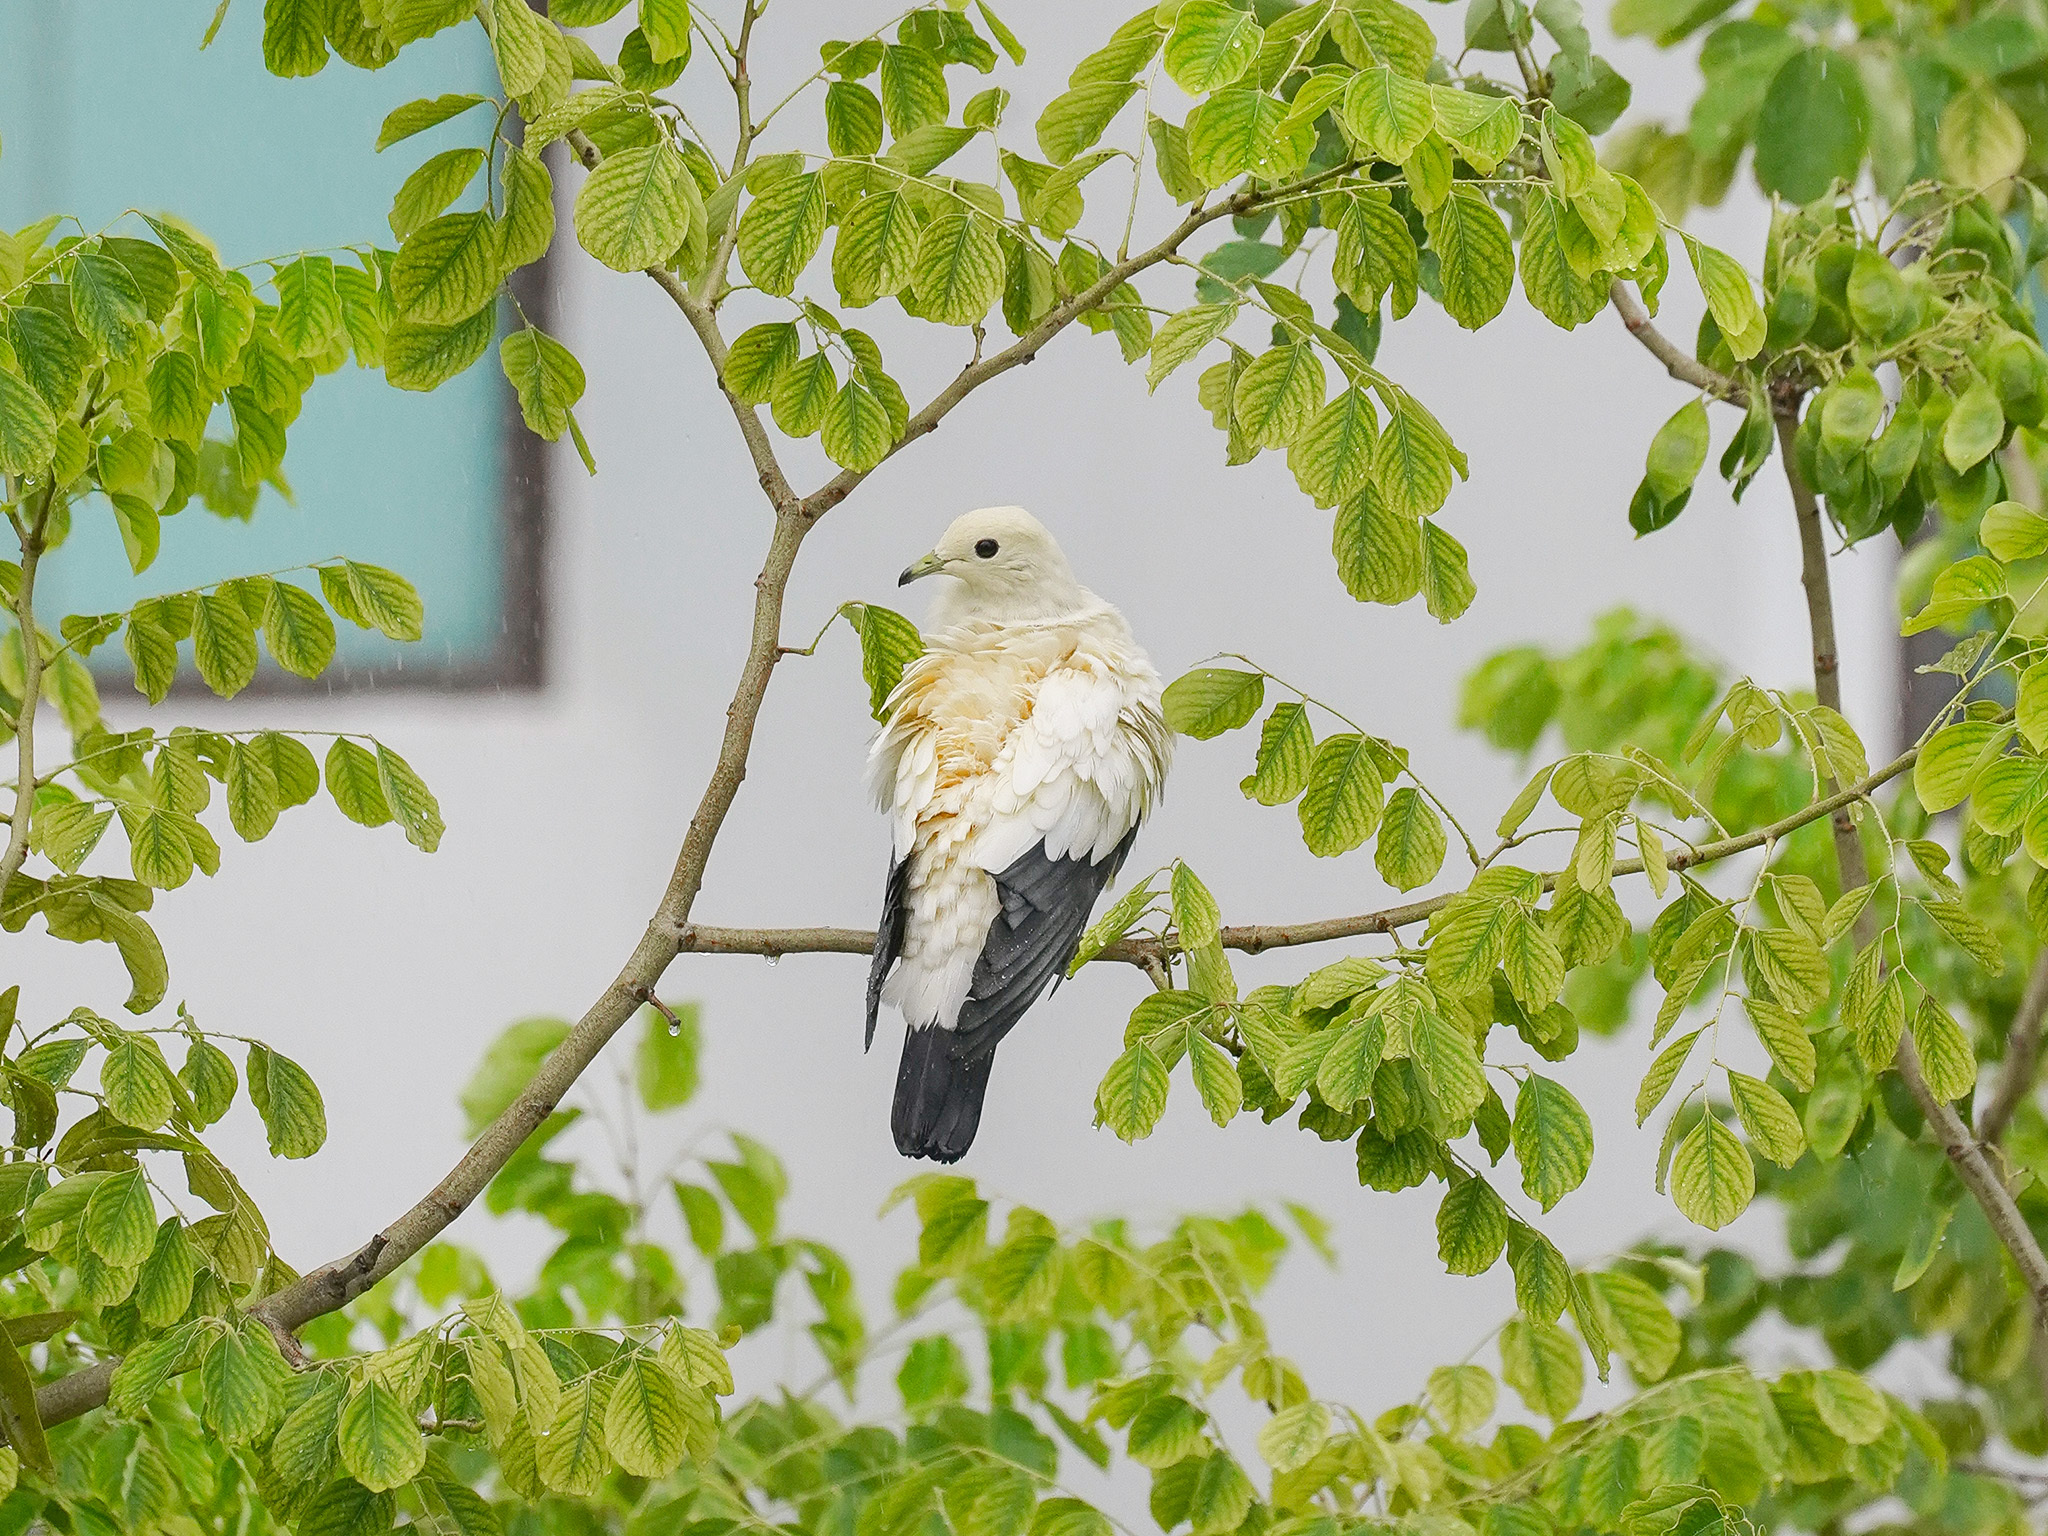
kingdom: Animalia
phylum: Chordata
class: Aves
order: Columbiformes
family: Columbidae
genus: Ducula
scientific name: Ducula bicolor
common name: Pied imperial pigeon
